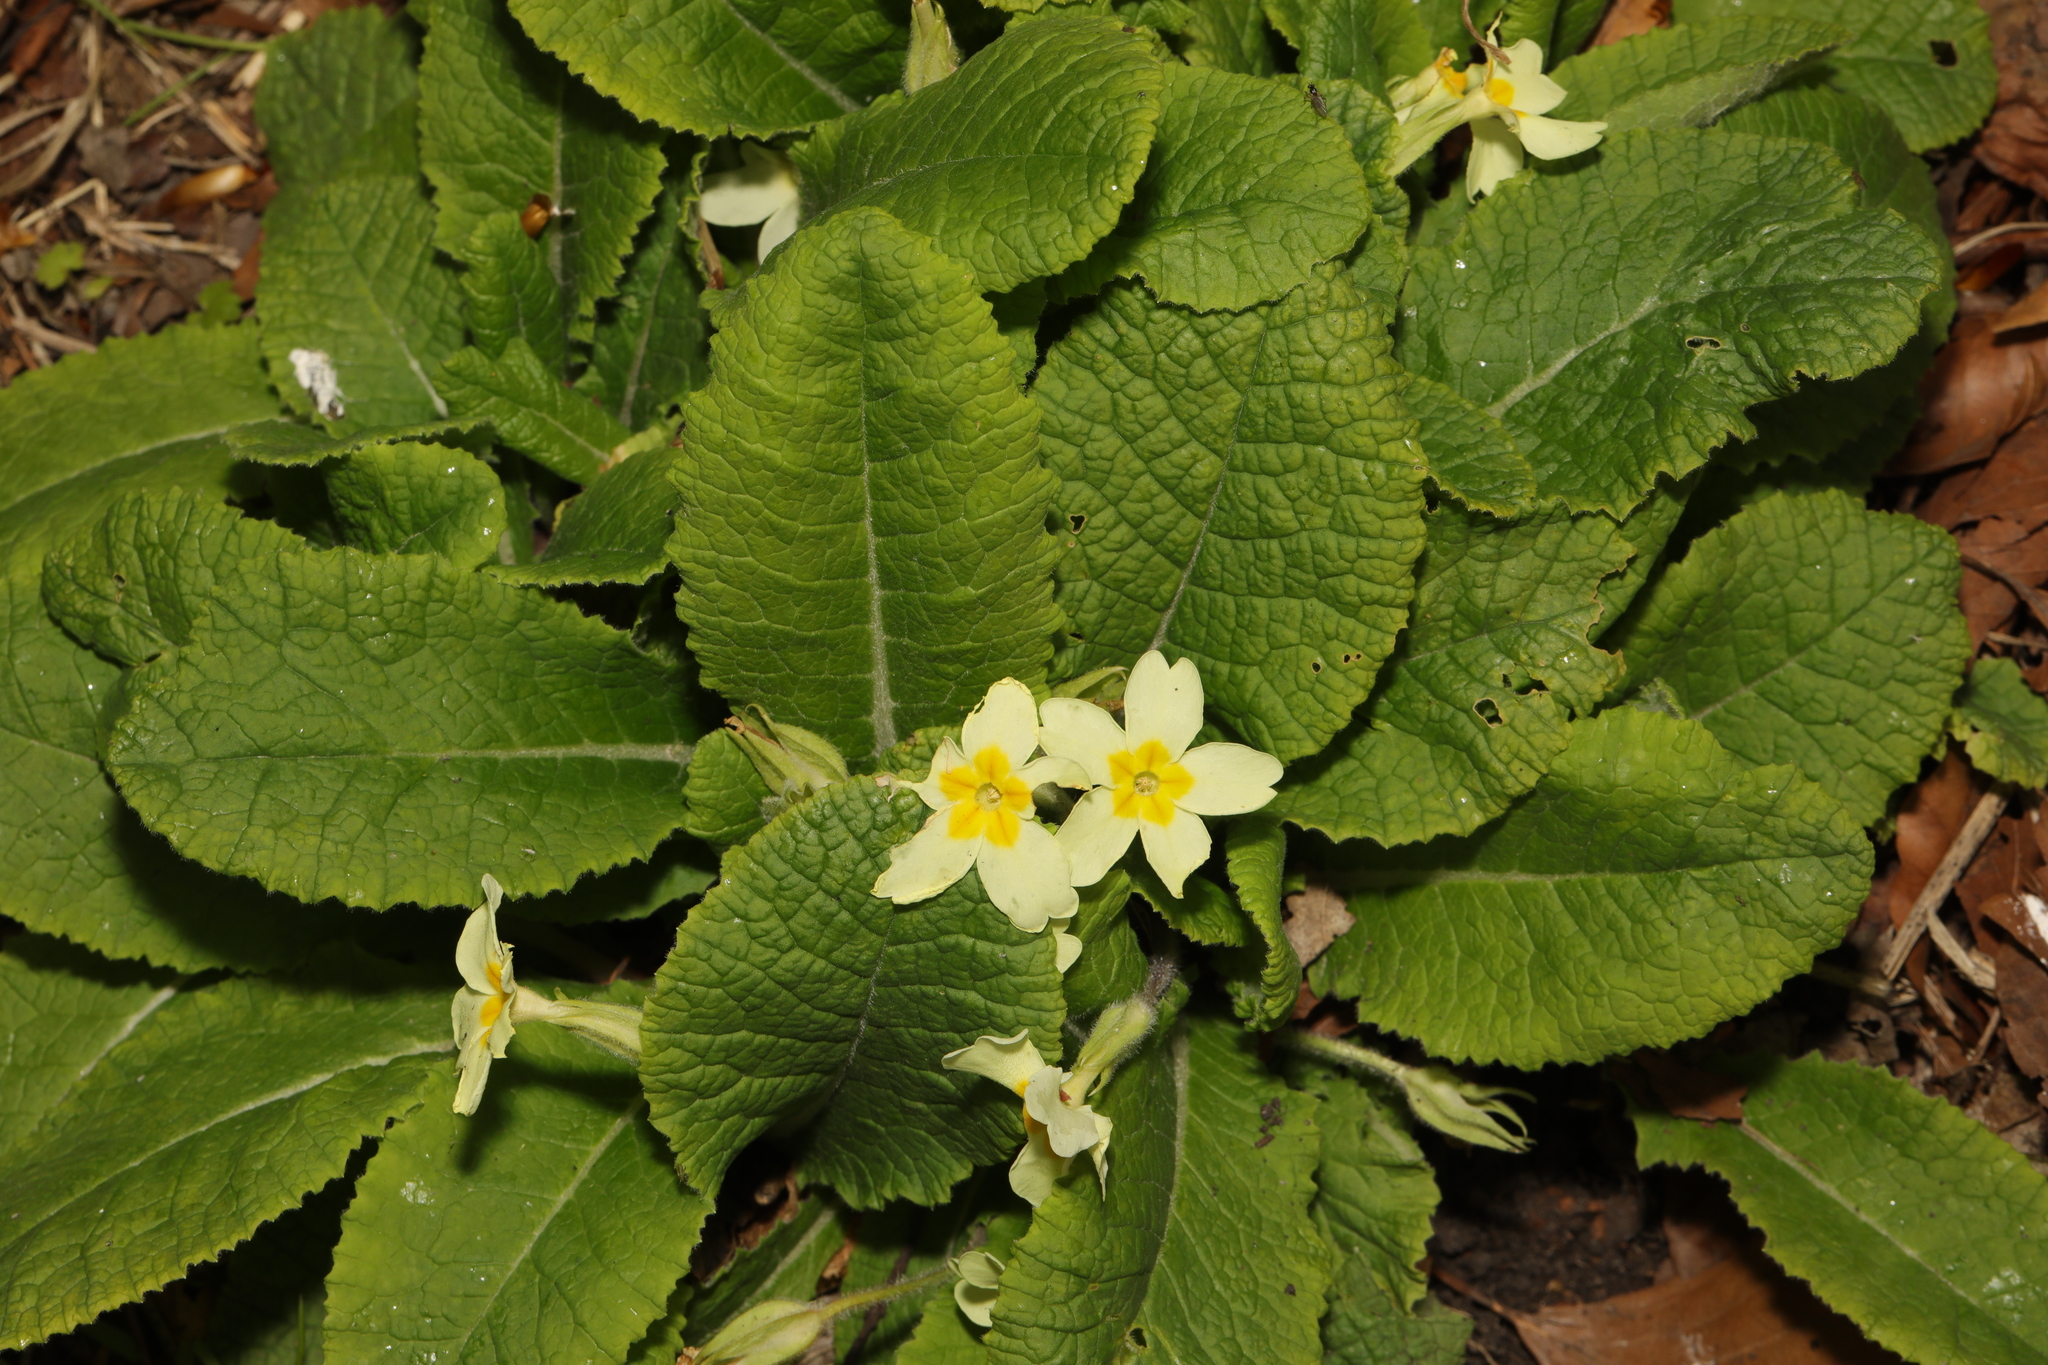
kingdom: Plantae
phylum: Tracheophyta
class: Magnoliopsida
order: Ericales
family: Primulaceae
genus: Primula
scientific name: Primula vulgaris
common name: Primrose
